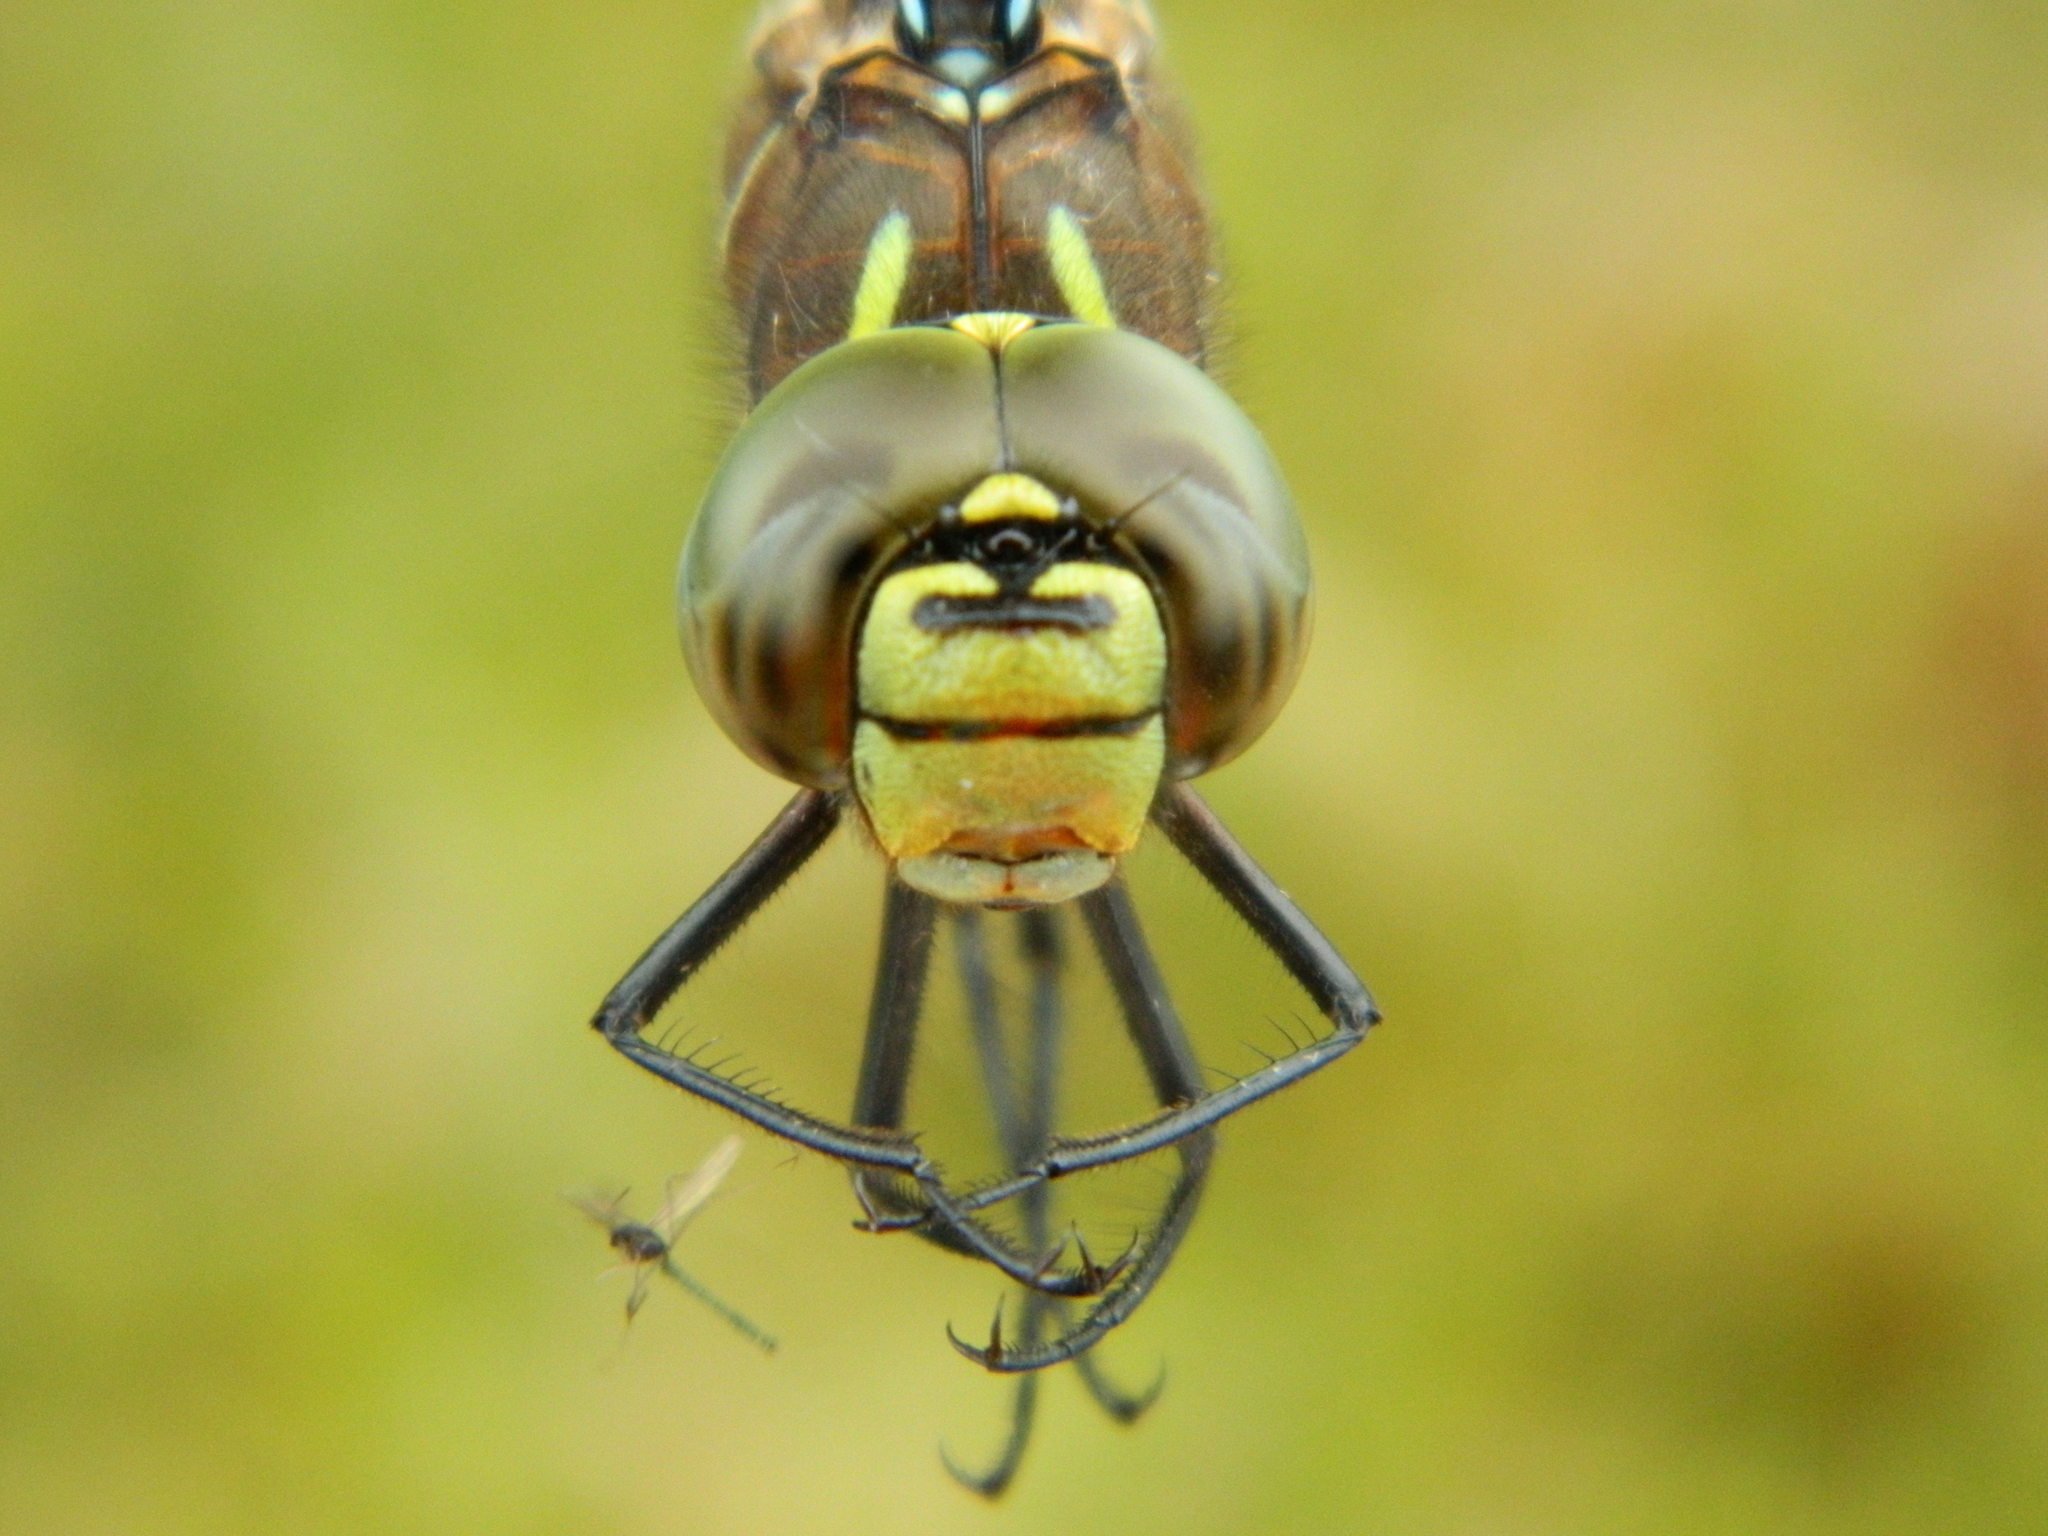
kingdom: Animalia
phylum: Arthropoda
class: Insecta
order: Odonata
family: Aeshnidae
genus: Aeshna
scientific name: Aeshna interrupta
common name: Variable darner
